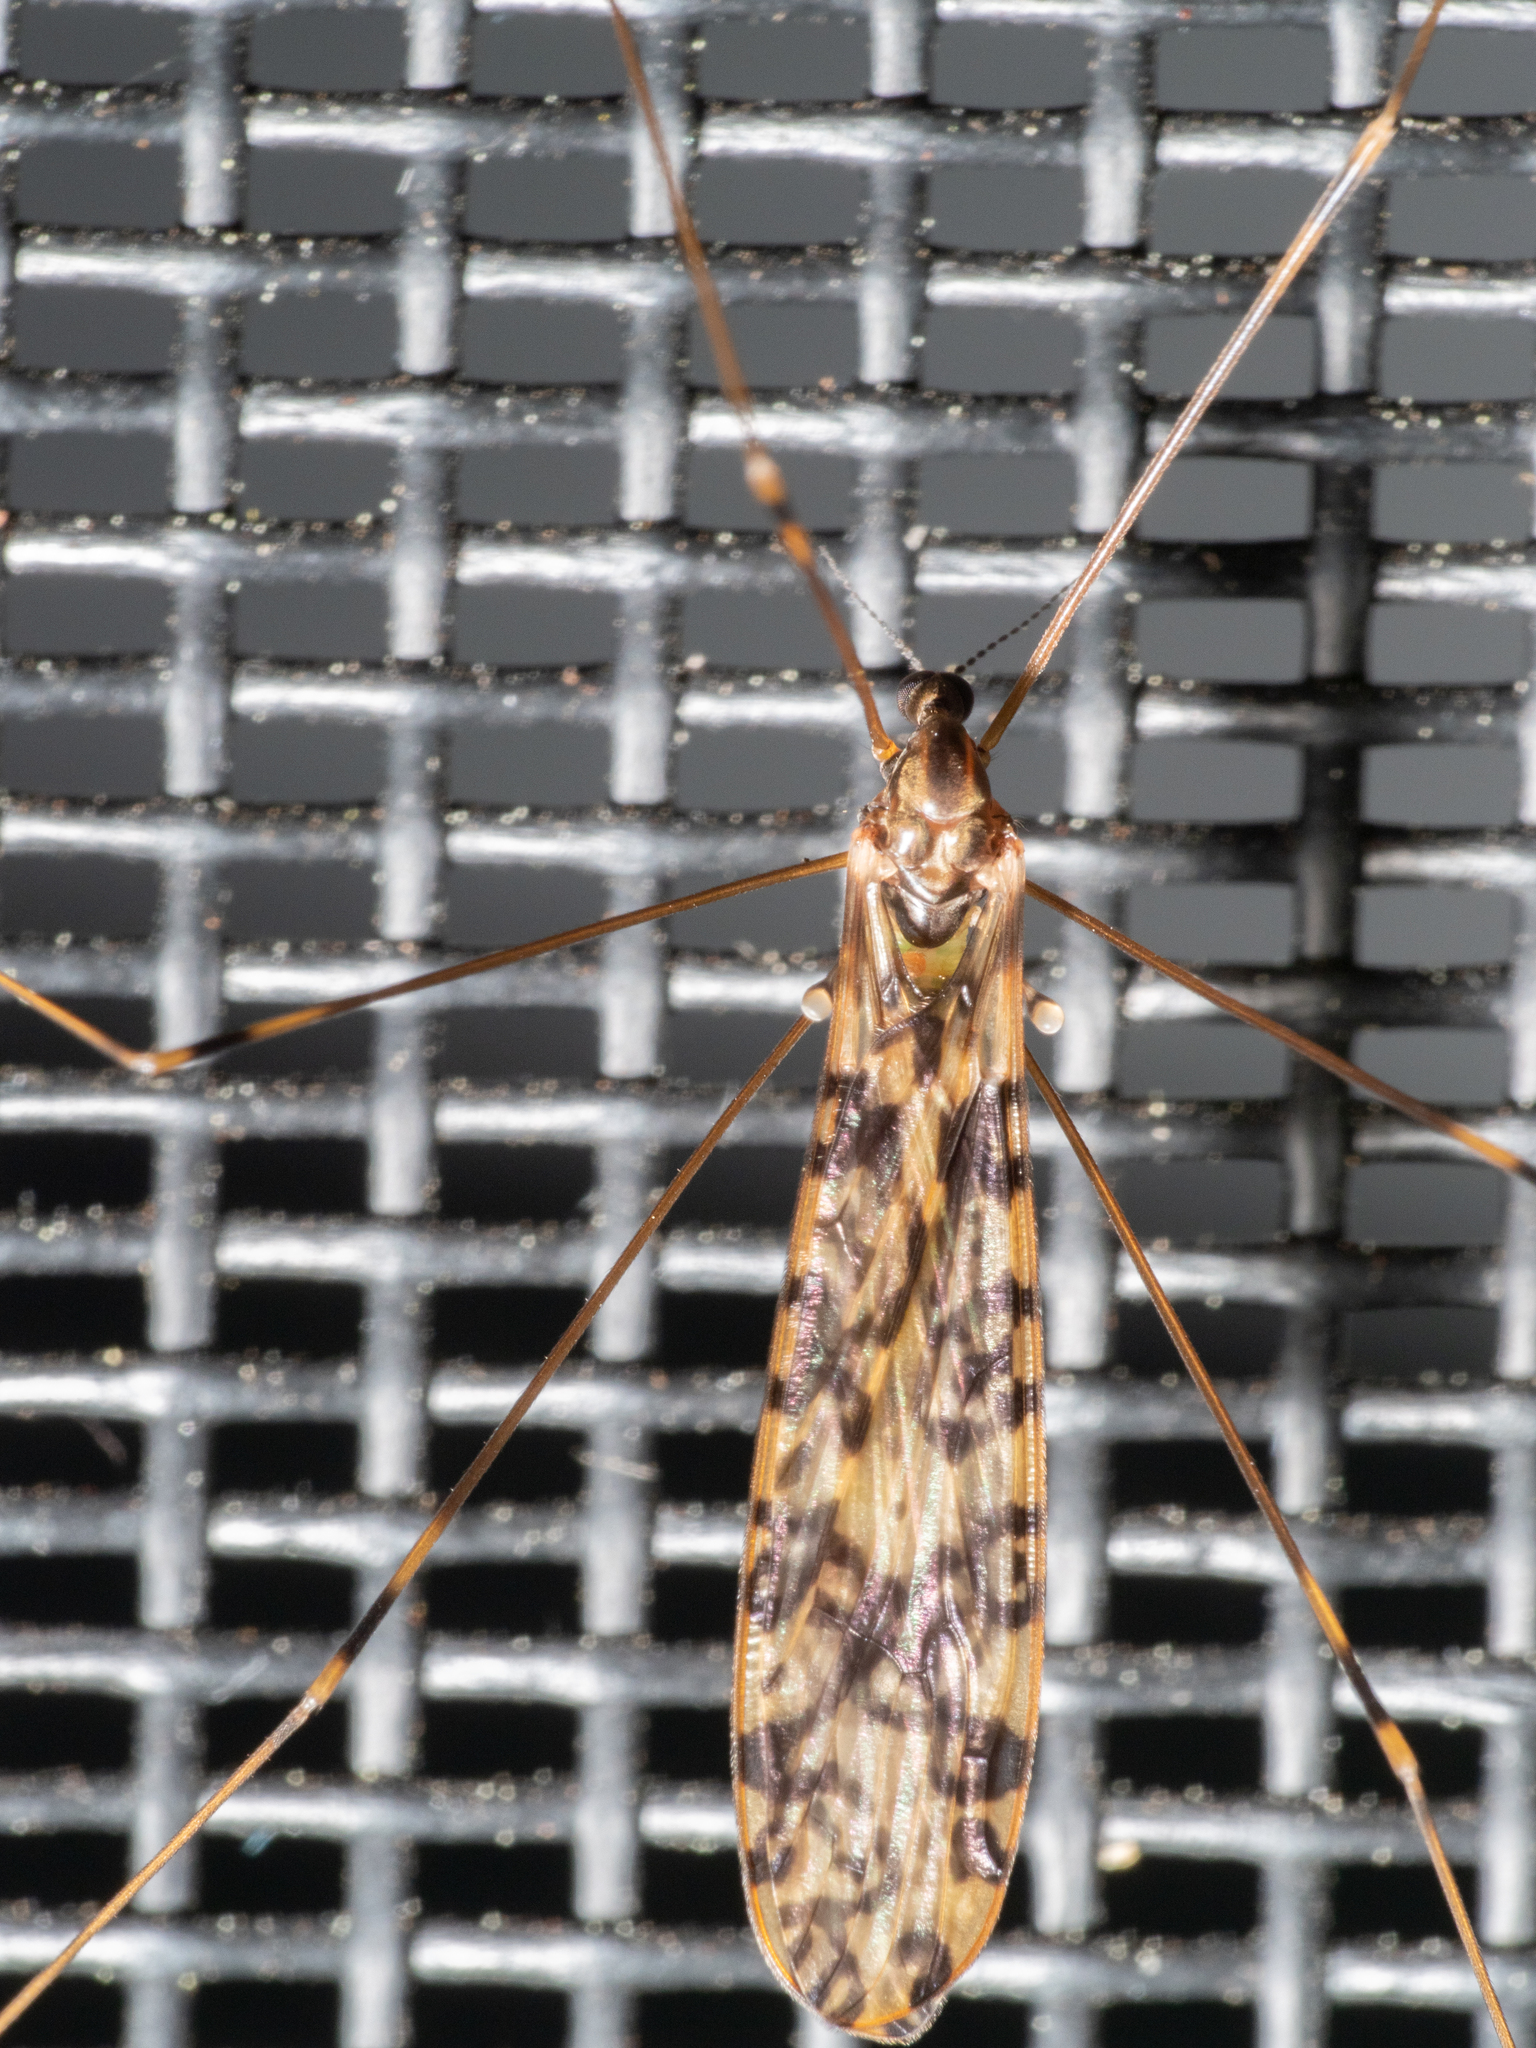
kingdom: Animalia
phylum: Arthropoda
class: Insecta
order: Diptera
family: Limoniidae
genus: Discobola
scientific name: Discobola australis
